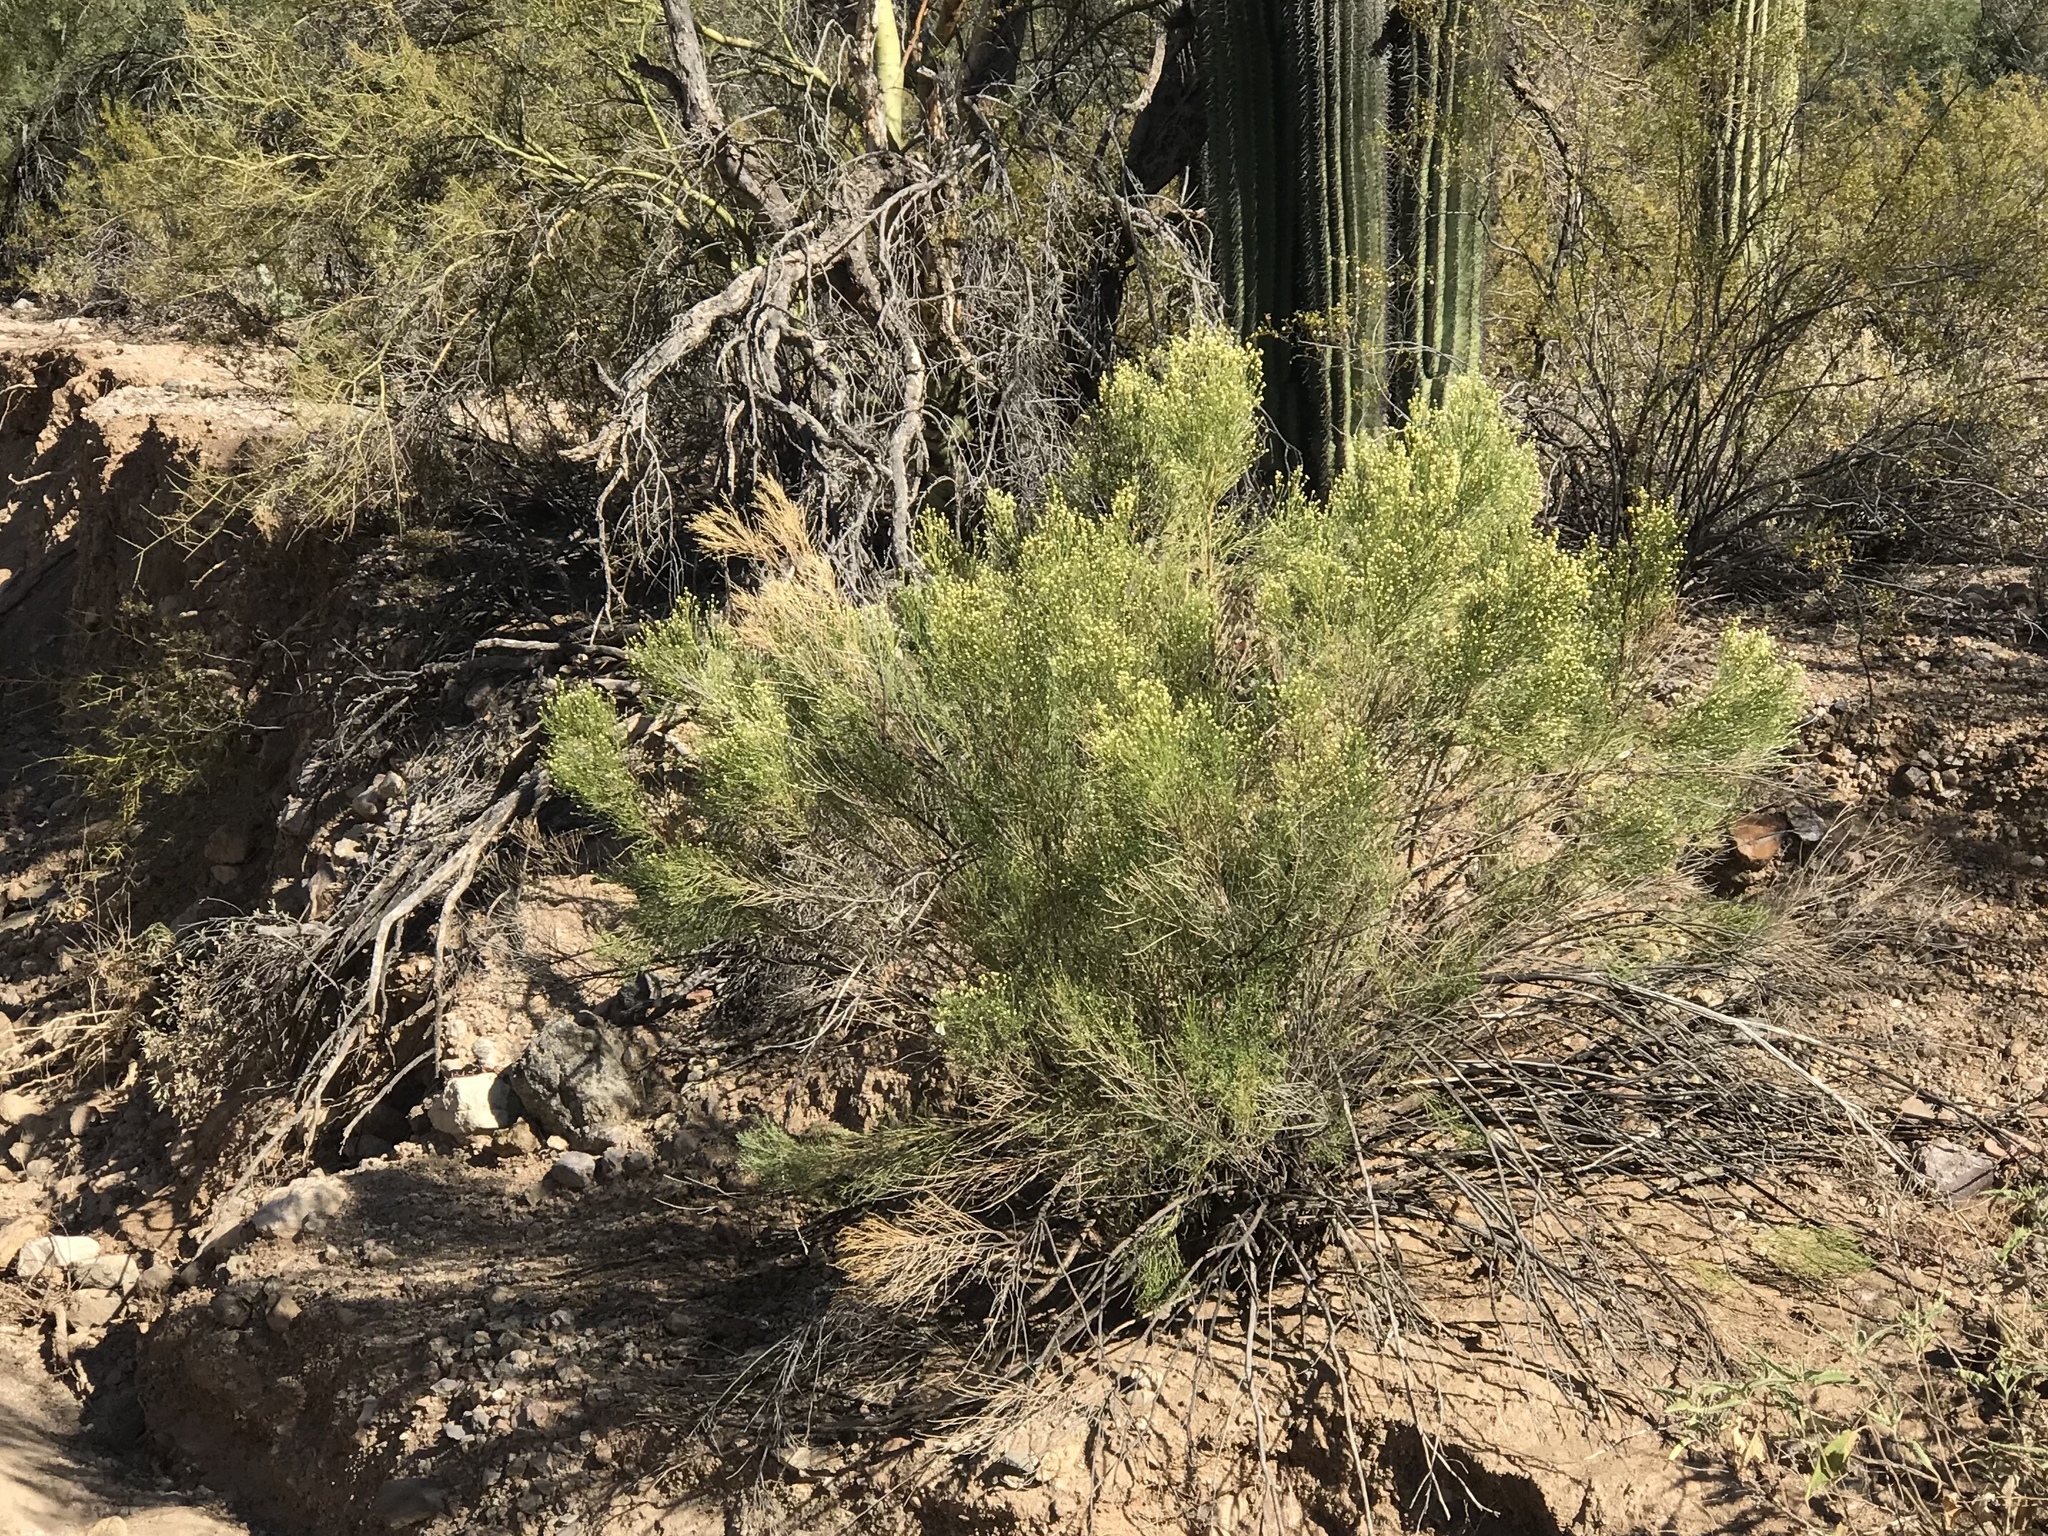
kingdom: Plantae
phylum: Tracheophyta
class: Magnoliopsida
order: Asterales
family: Asteraceae
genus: Baccharis
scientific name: Baccharis sarothroides
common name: Desert-broom
